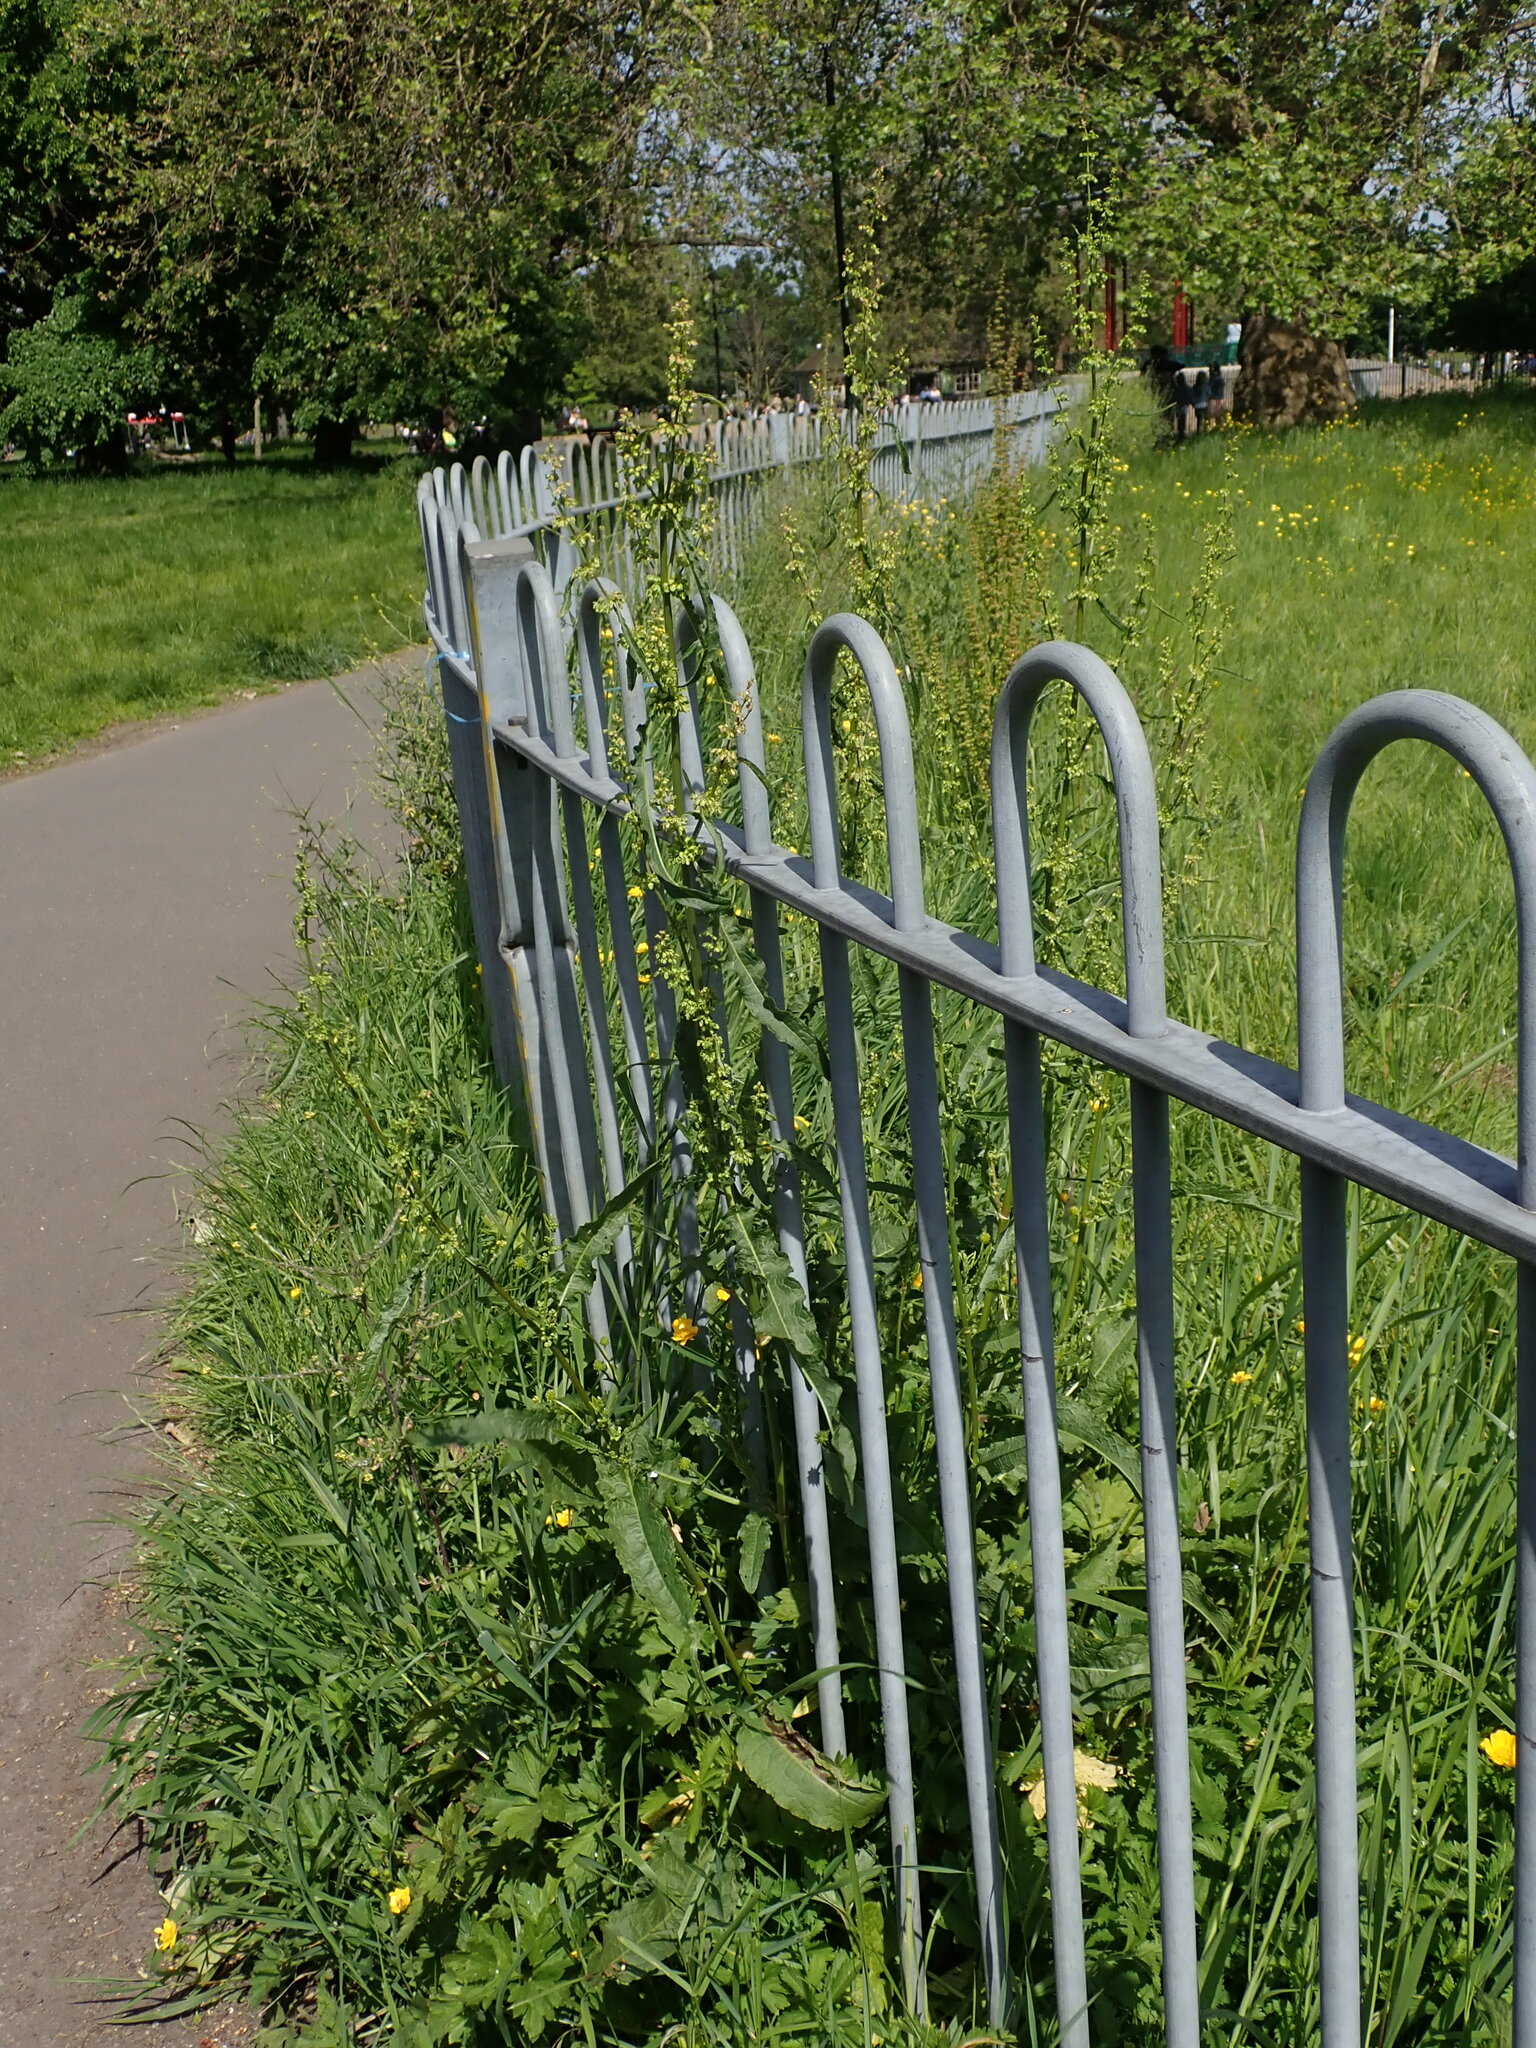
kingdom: Plantae
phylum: Tracheophyta
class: Magnoliopsida
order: Caryophyllales
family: Polygonaceae
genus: Rumex
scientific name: Rumex crispus
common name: Curled dock
